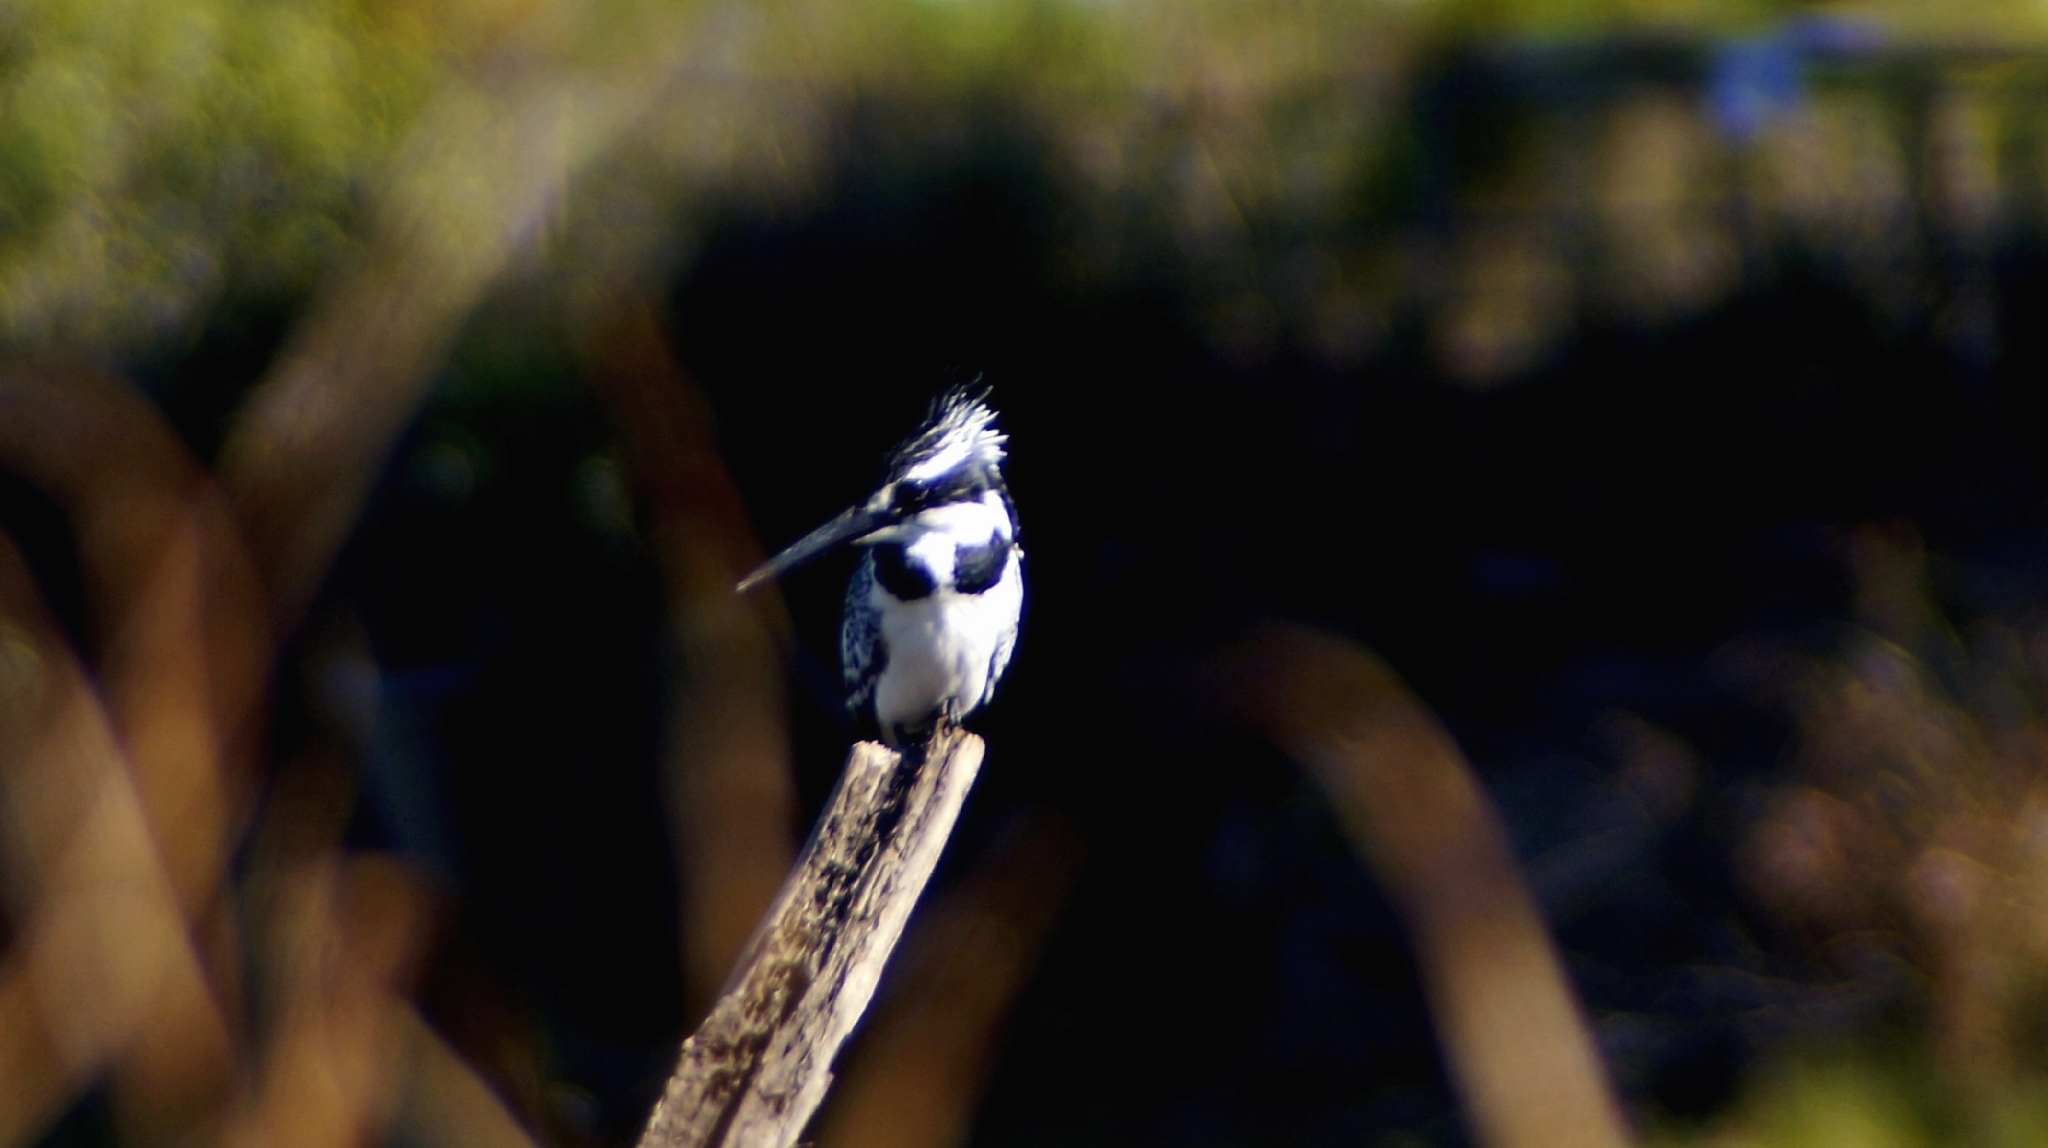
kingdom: Animalia
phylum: Chordata
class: Aves
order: Coraciiformes
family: Alcedinidae
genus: Ceryle
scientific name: Ceryle rudis
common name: Pied kingfisher
